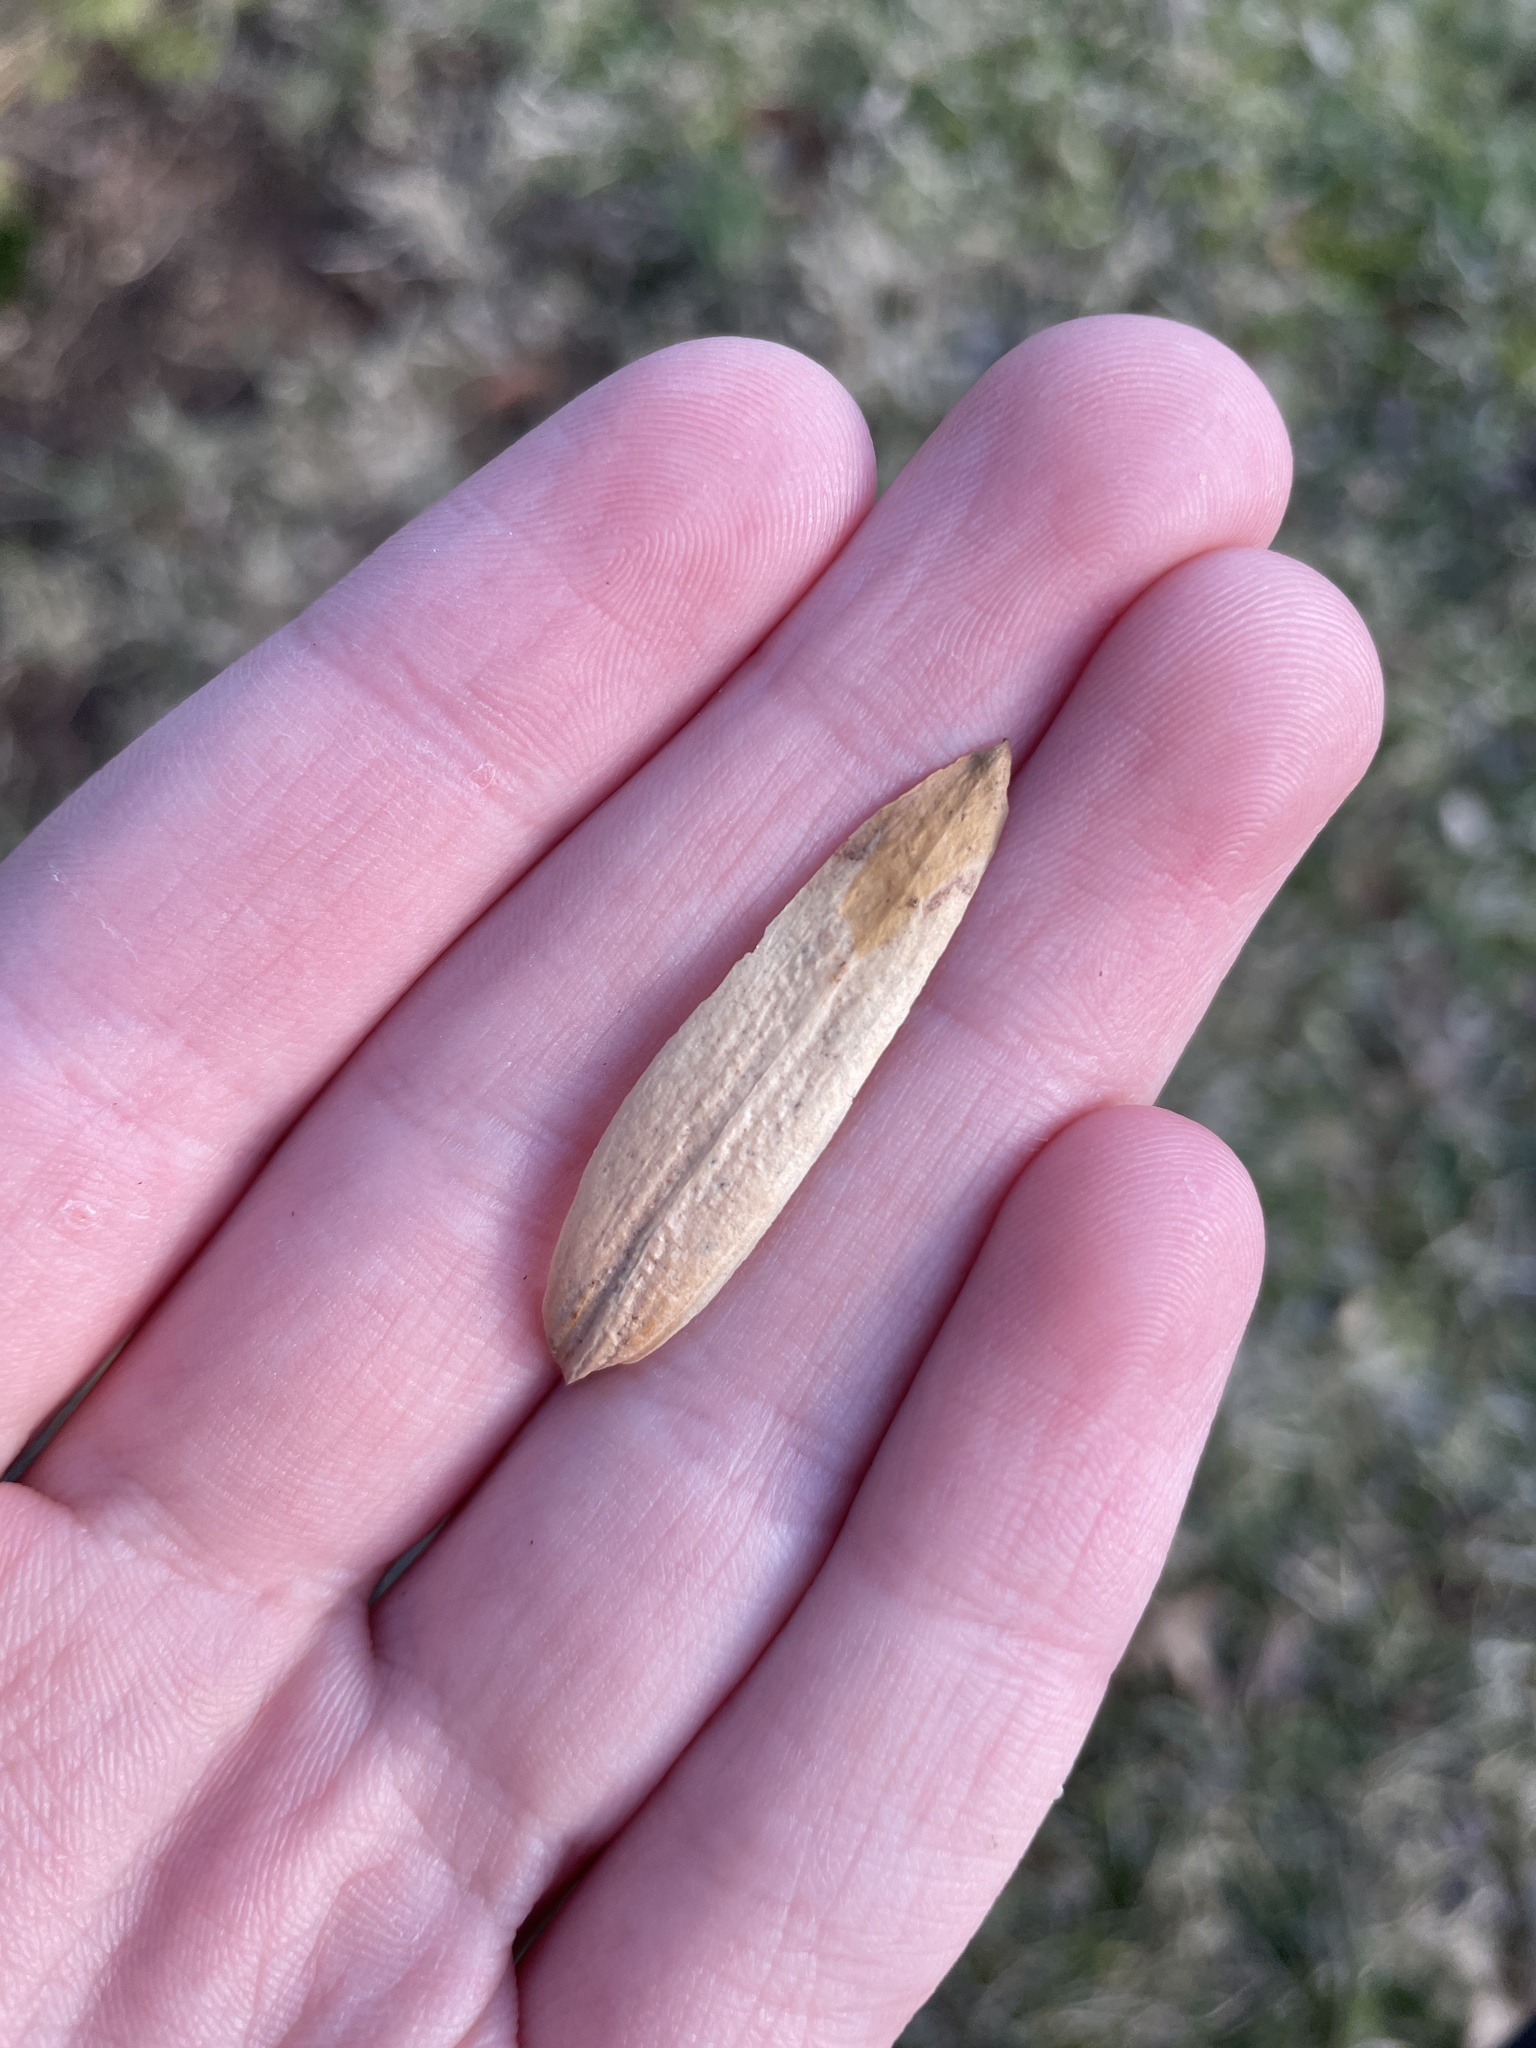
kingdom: Plantae
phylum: Tracheophyta
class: Magnoliopsida
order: Magnoliales
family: Magnoliaceae
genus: Liriodendron
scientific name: Liriodendron tulipifera
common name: Tulip tree
